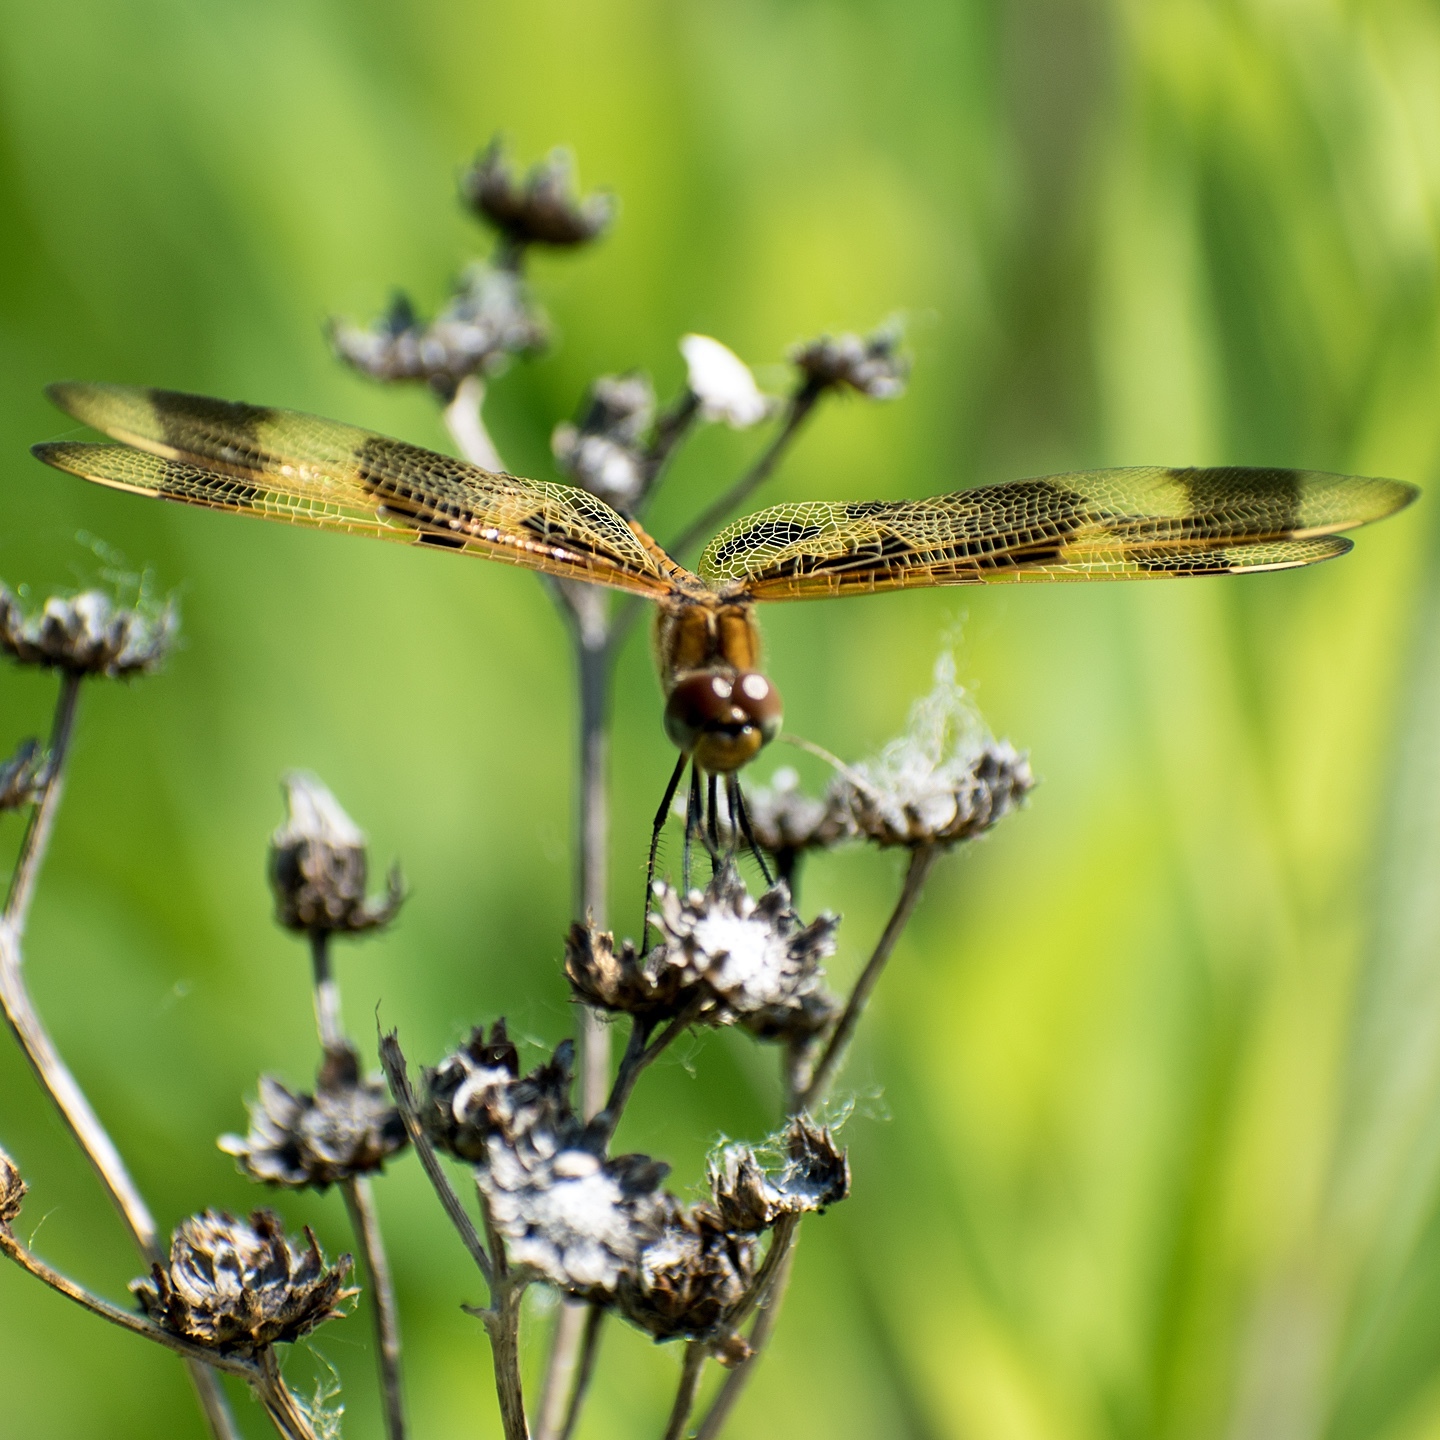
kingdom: Animalia
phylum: Arthropoda
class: Insecta
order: Odonata
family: Libellulidae
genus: Celithemis
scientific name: Celithemis eponina
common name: Halloween pennant
